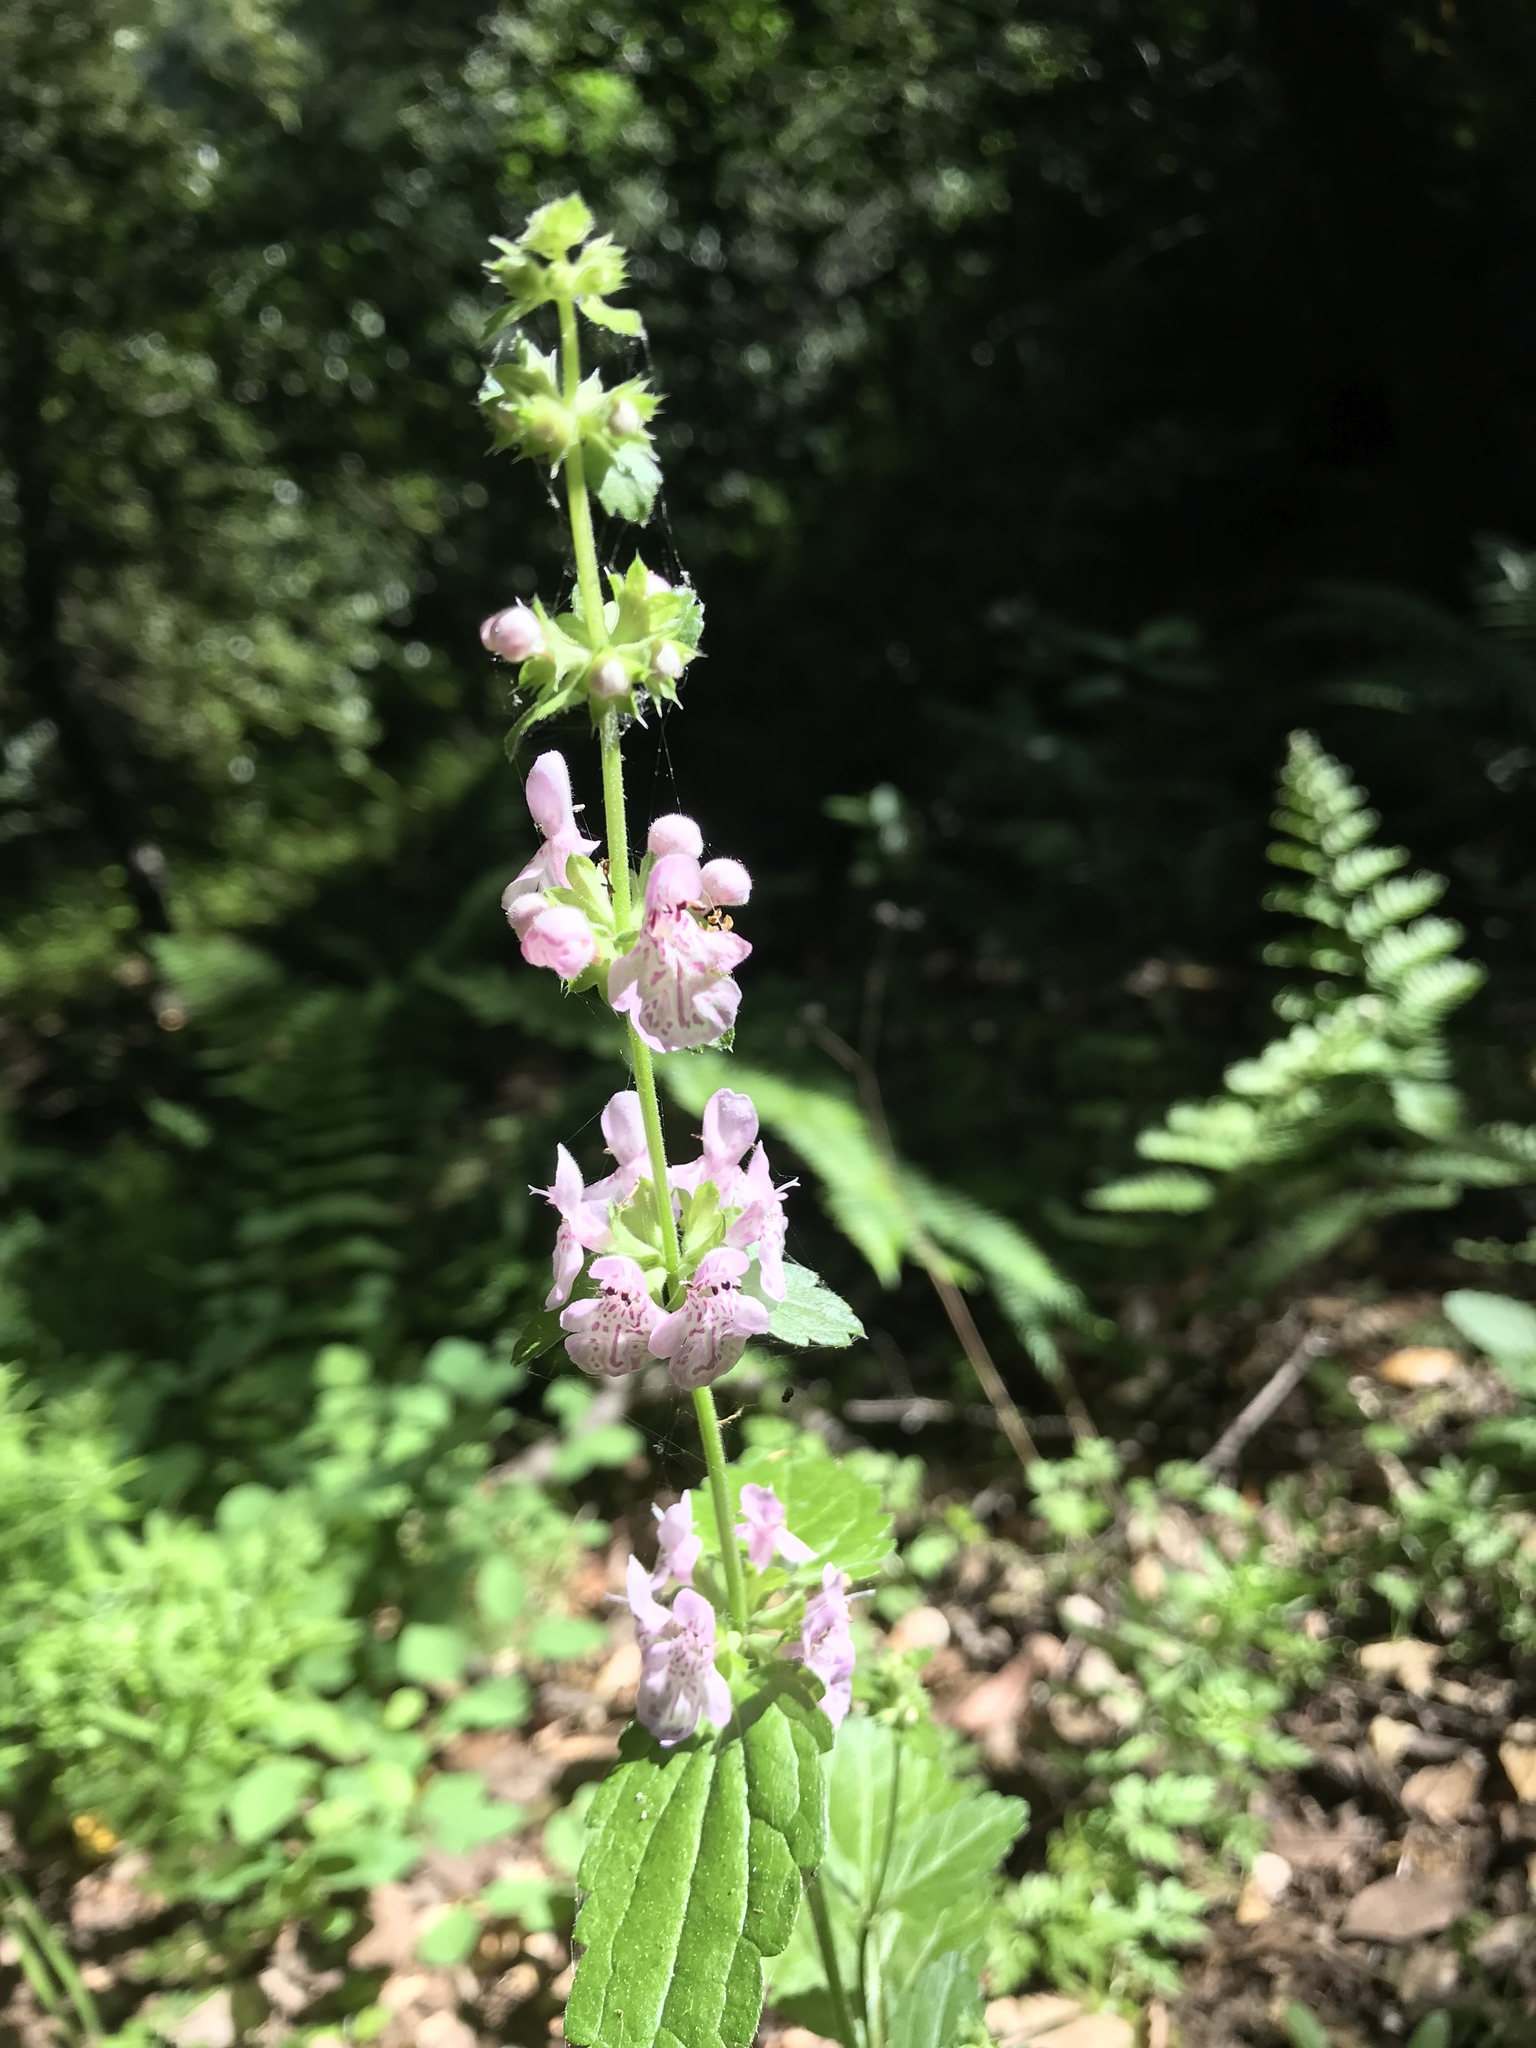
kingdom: Plantae
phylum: Tracheophyta
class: Magnoliopsida
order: Lamiales
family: Lamiaceae
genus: Stachys
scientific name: Stachys bullata
